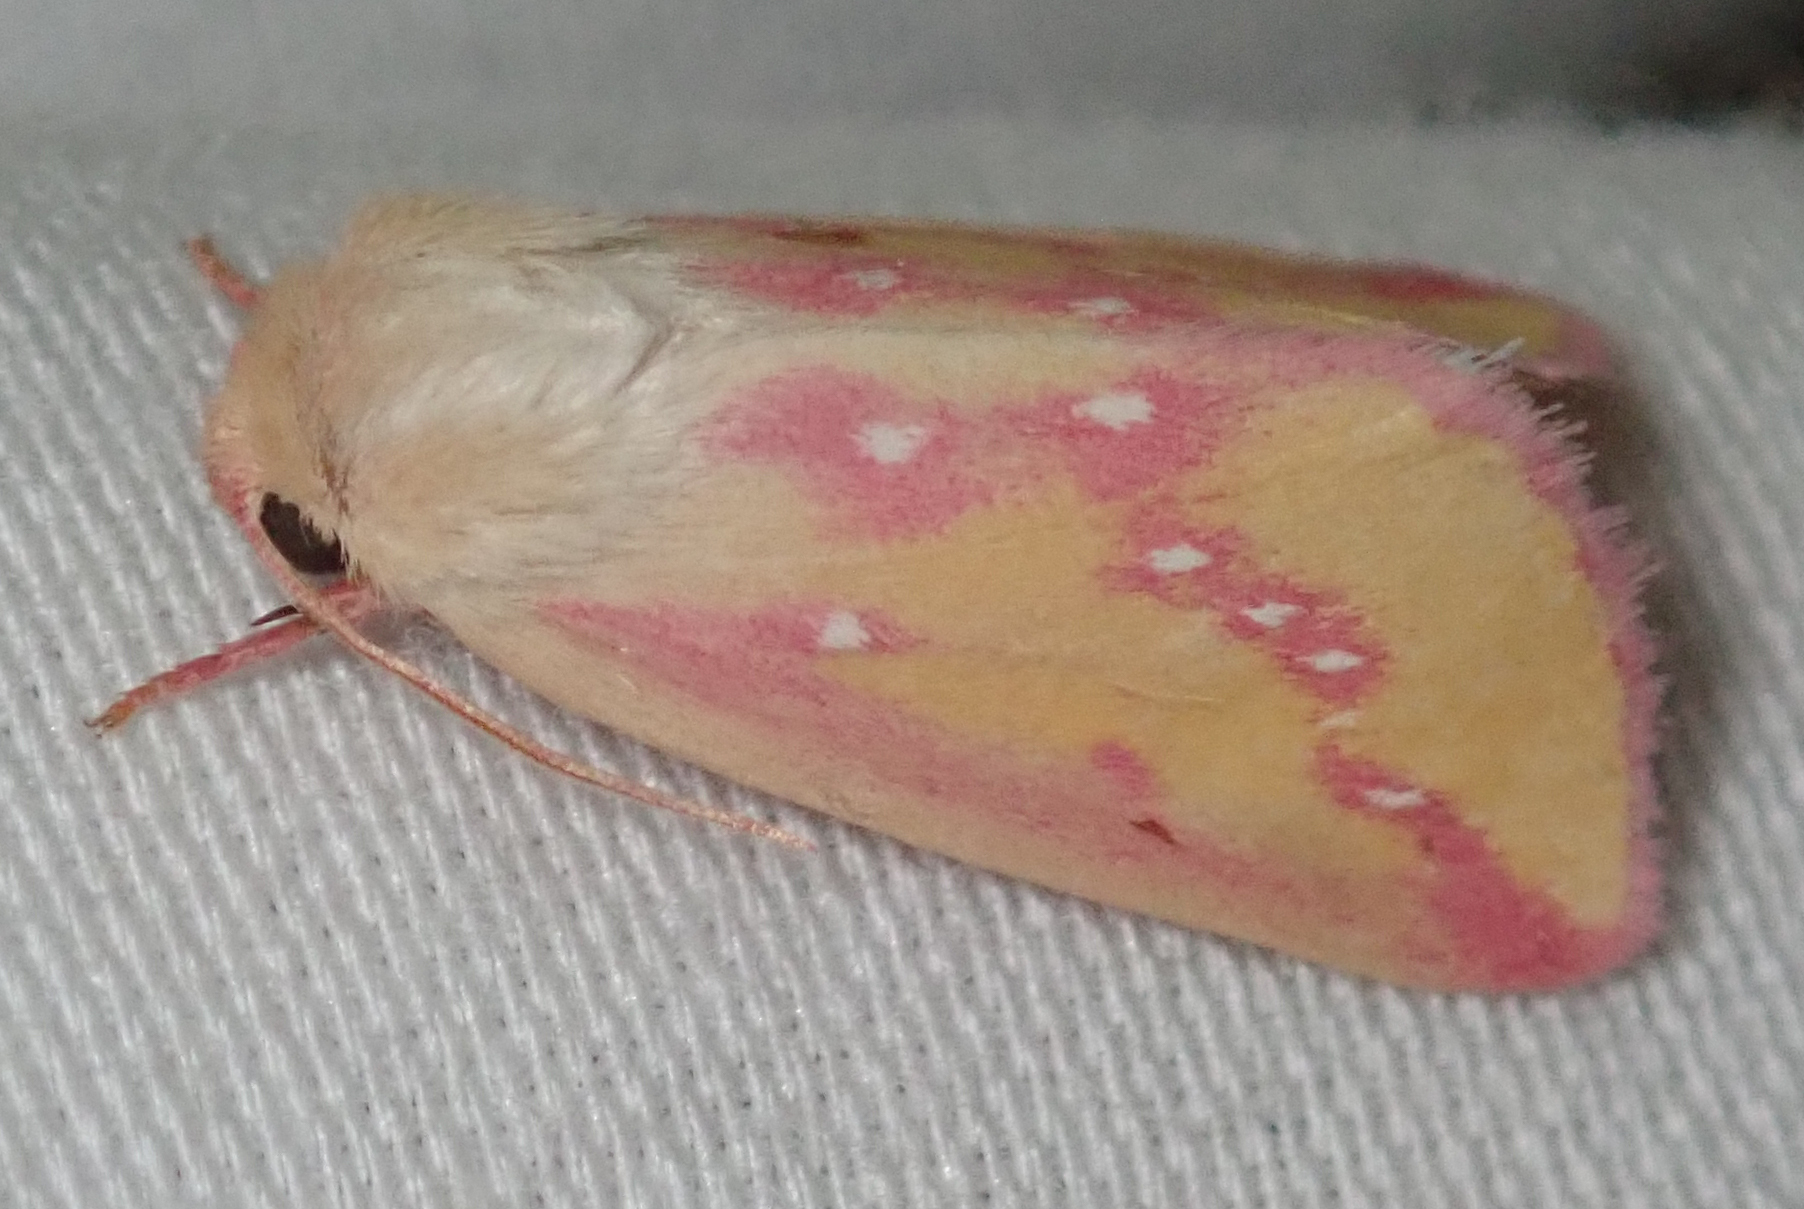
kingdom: Animalia
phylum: Arthropoda
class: Insecta
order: Lepidoptera
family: Noctuidae
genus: Timora
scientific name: Timora leucosticta
